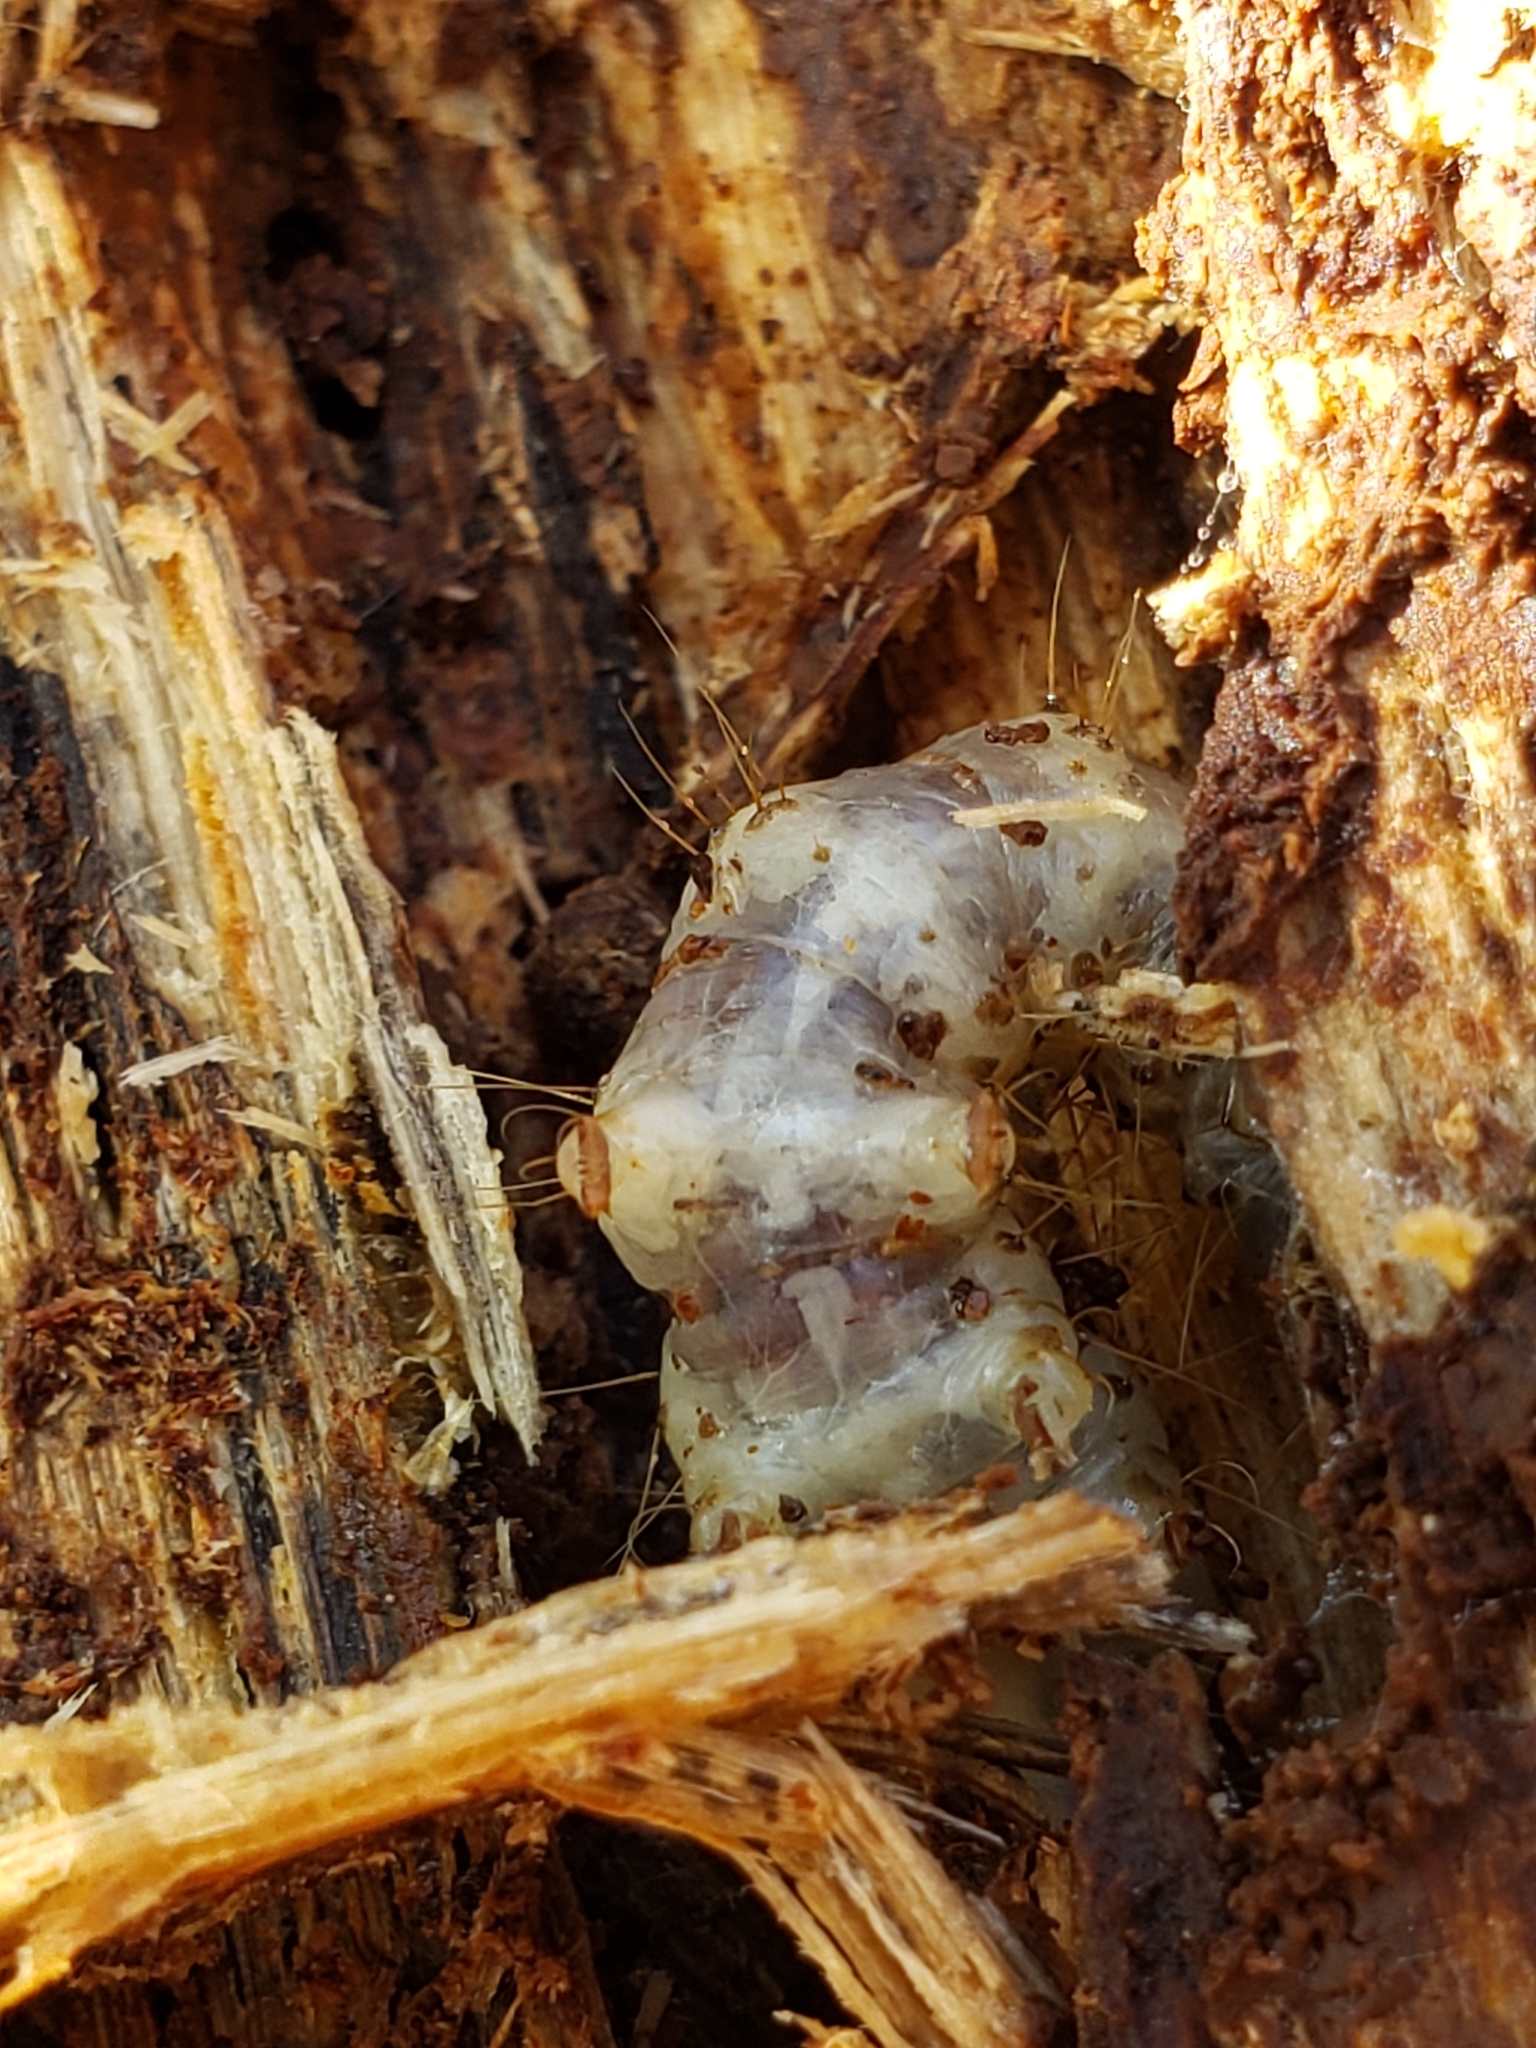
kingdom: Animalia
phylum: Arthropoda
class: Insecta
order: Lepidoptera
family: Erebidae
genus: Scolecocampa
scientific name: Scolecocampa liburna
